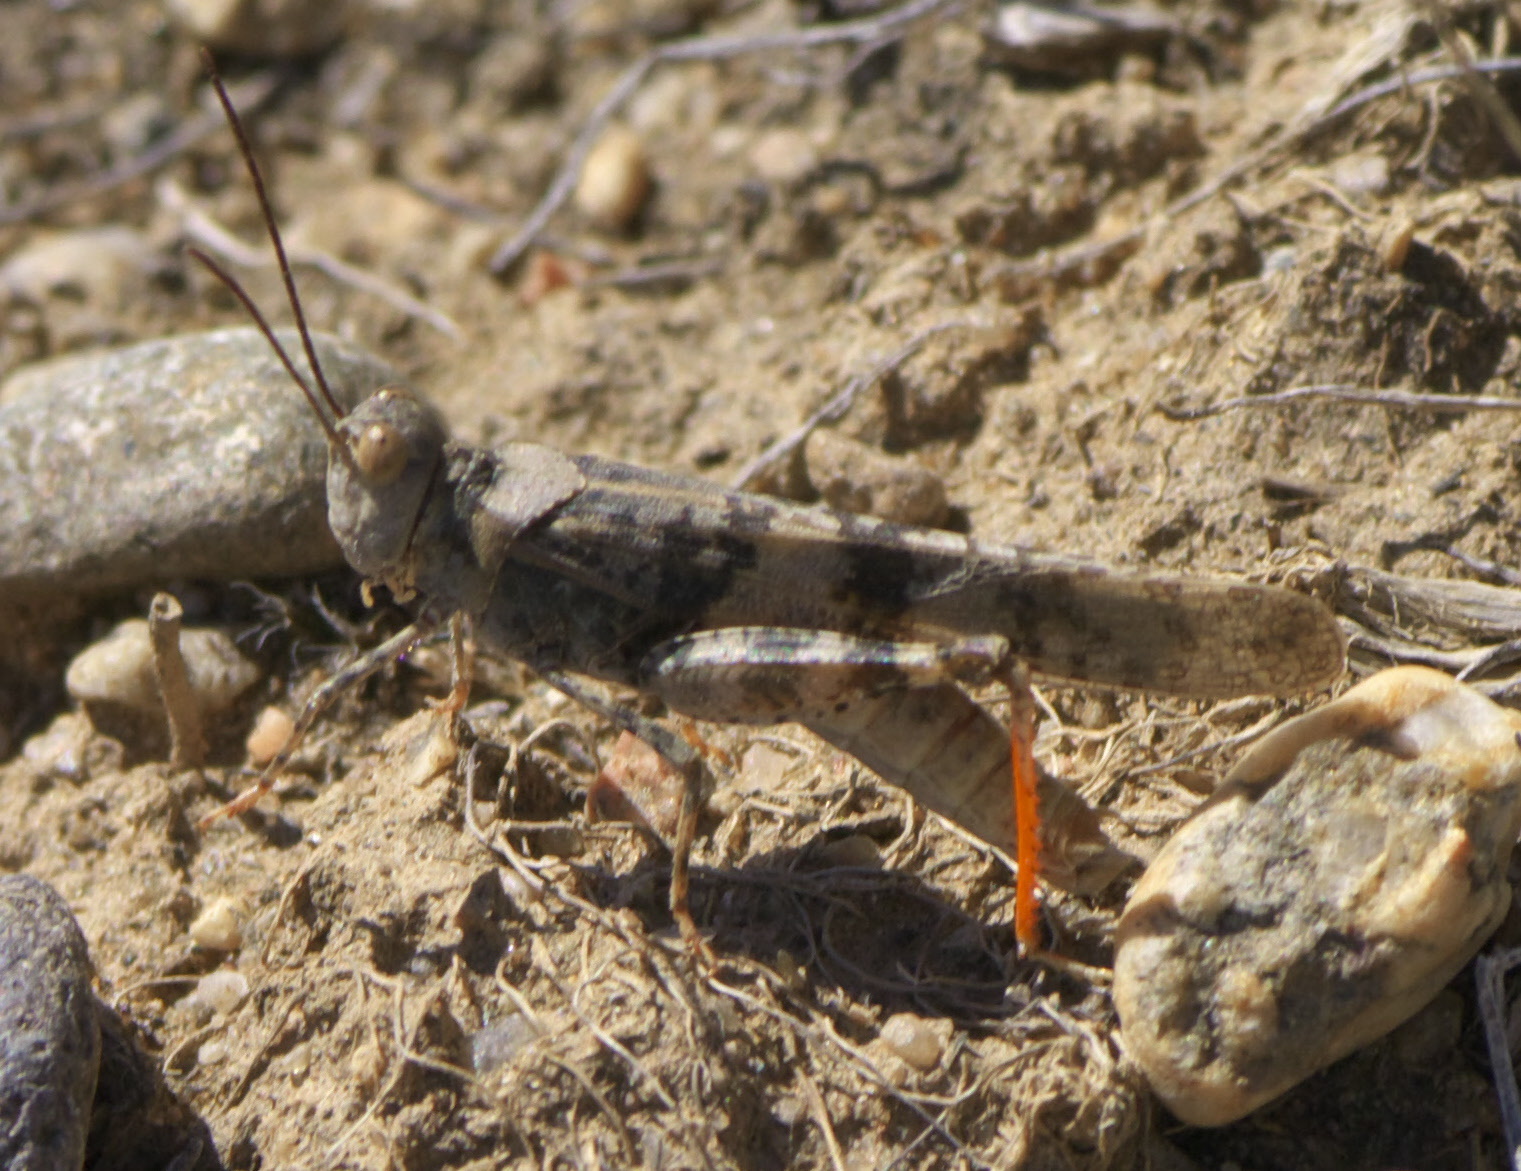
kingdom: Animalia
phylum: Arthropoda
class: Insecta
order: Orthoptera
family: Acrididae
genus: Trimerotropis
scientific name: Trimerotropis latifasciata
